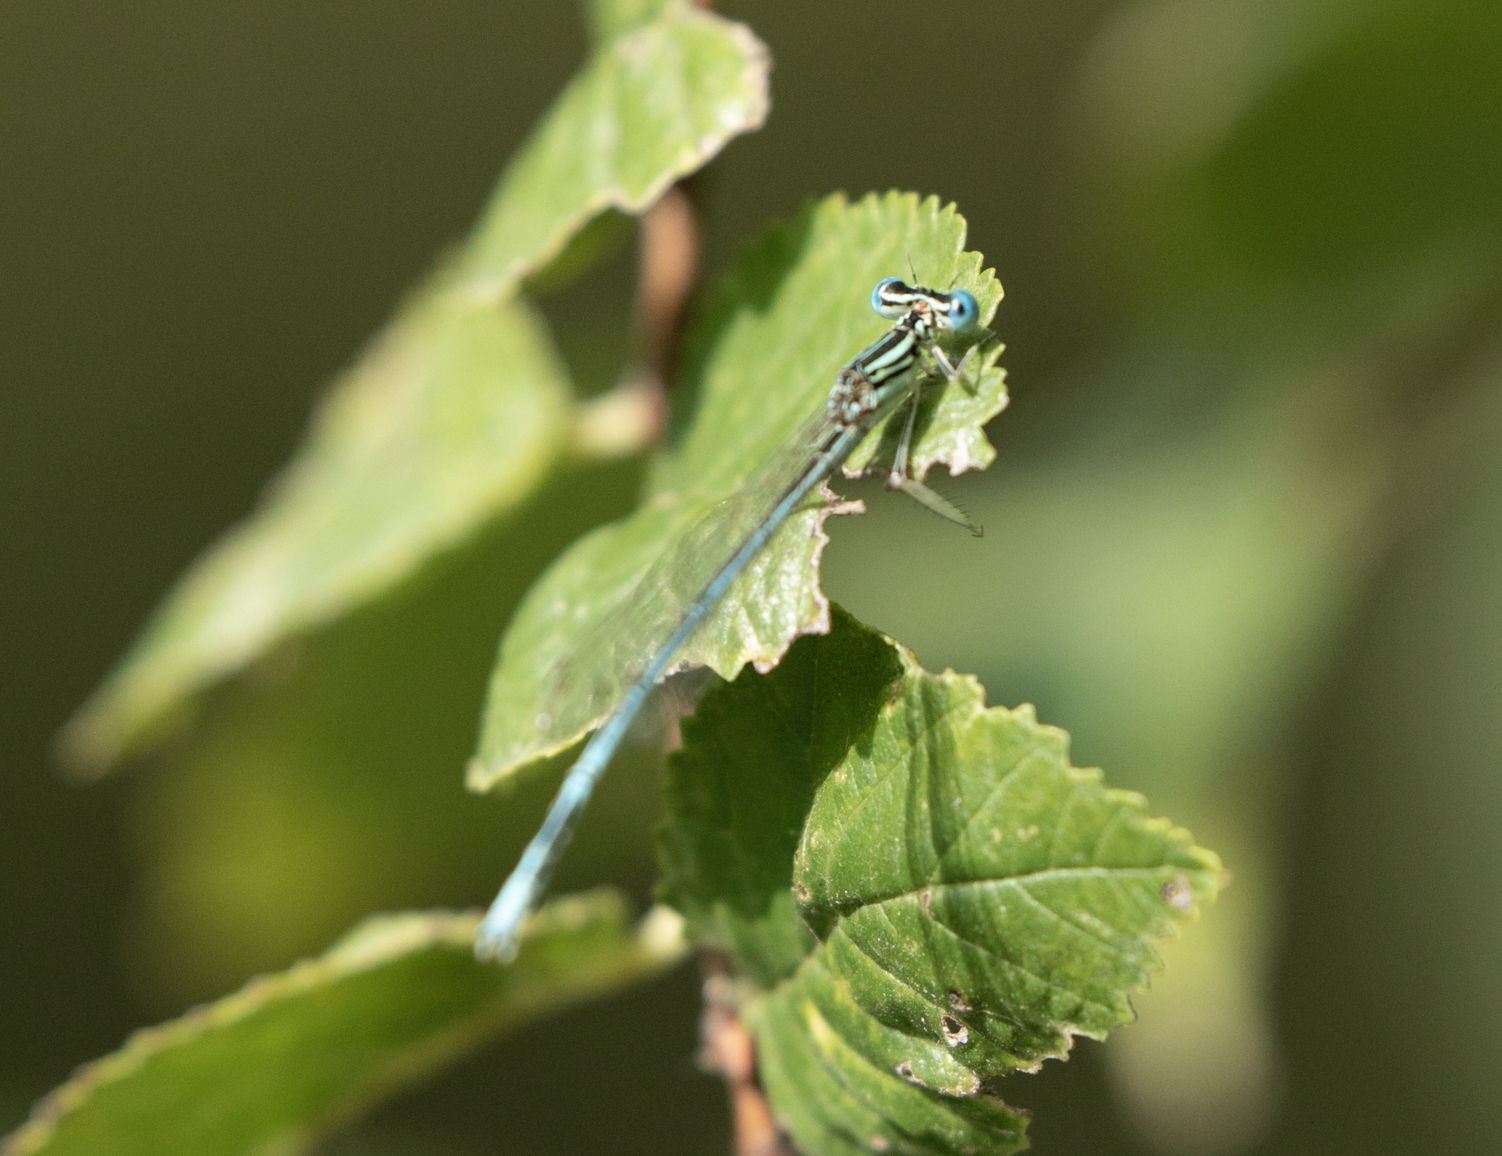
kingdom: Animalia
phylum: Arthropoda
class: Insecta
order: Odonata
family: Platycnemididae
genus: Platycnemis
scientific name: Platycnemis pennipes
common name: White-legged damselfly
